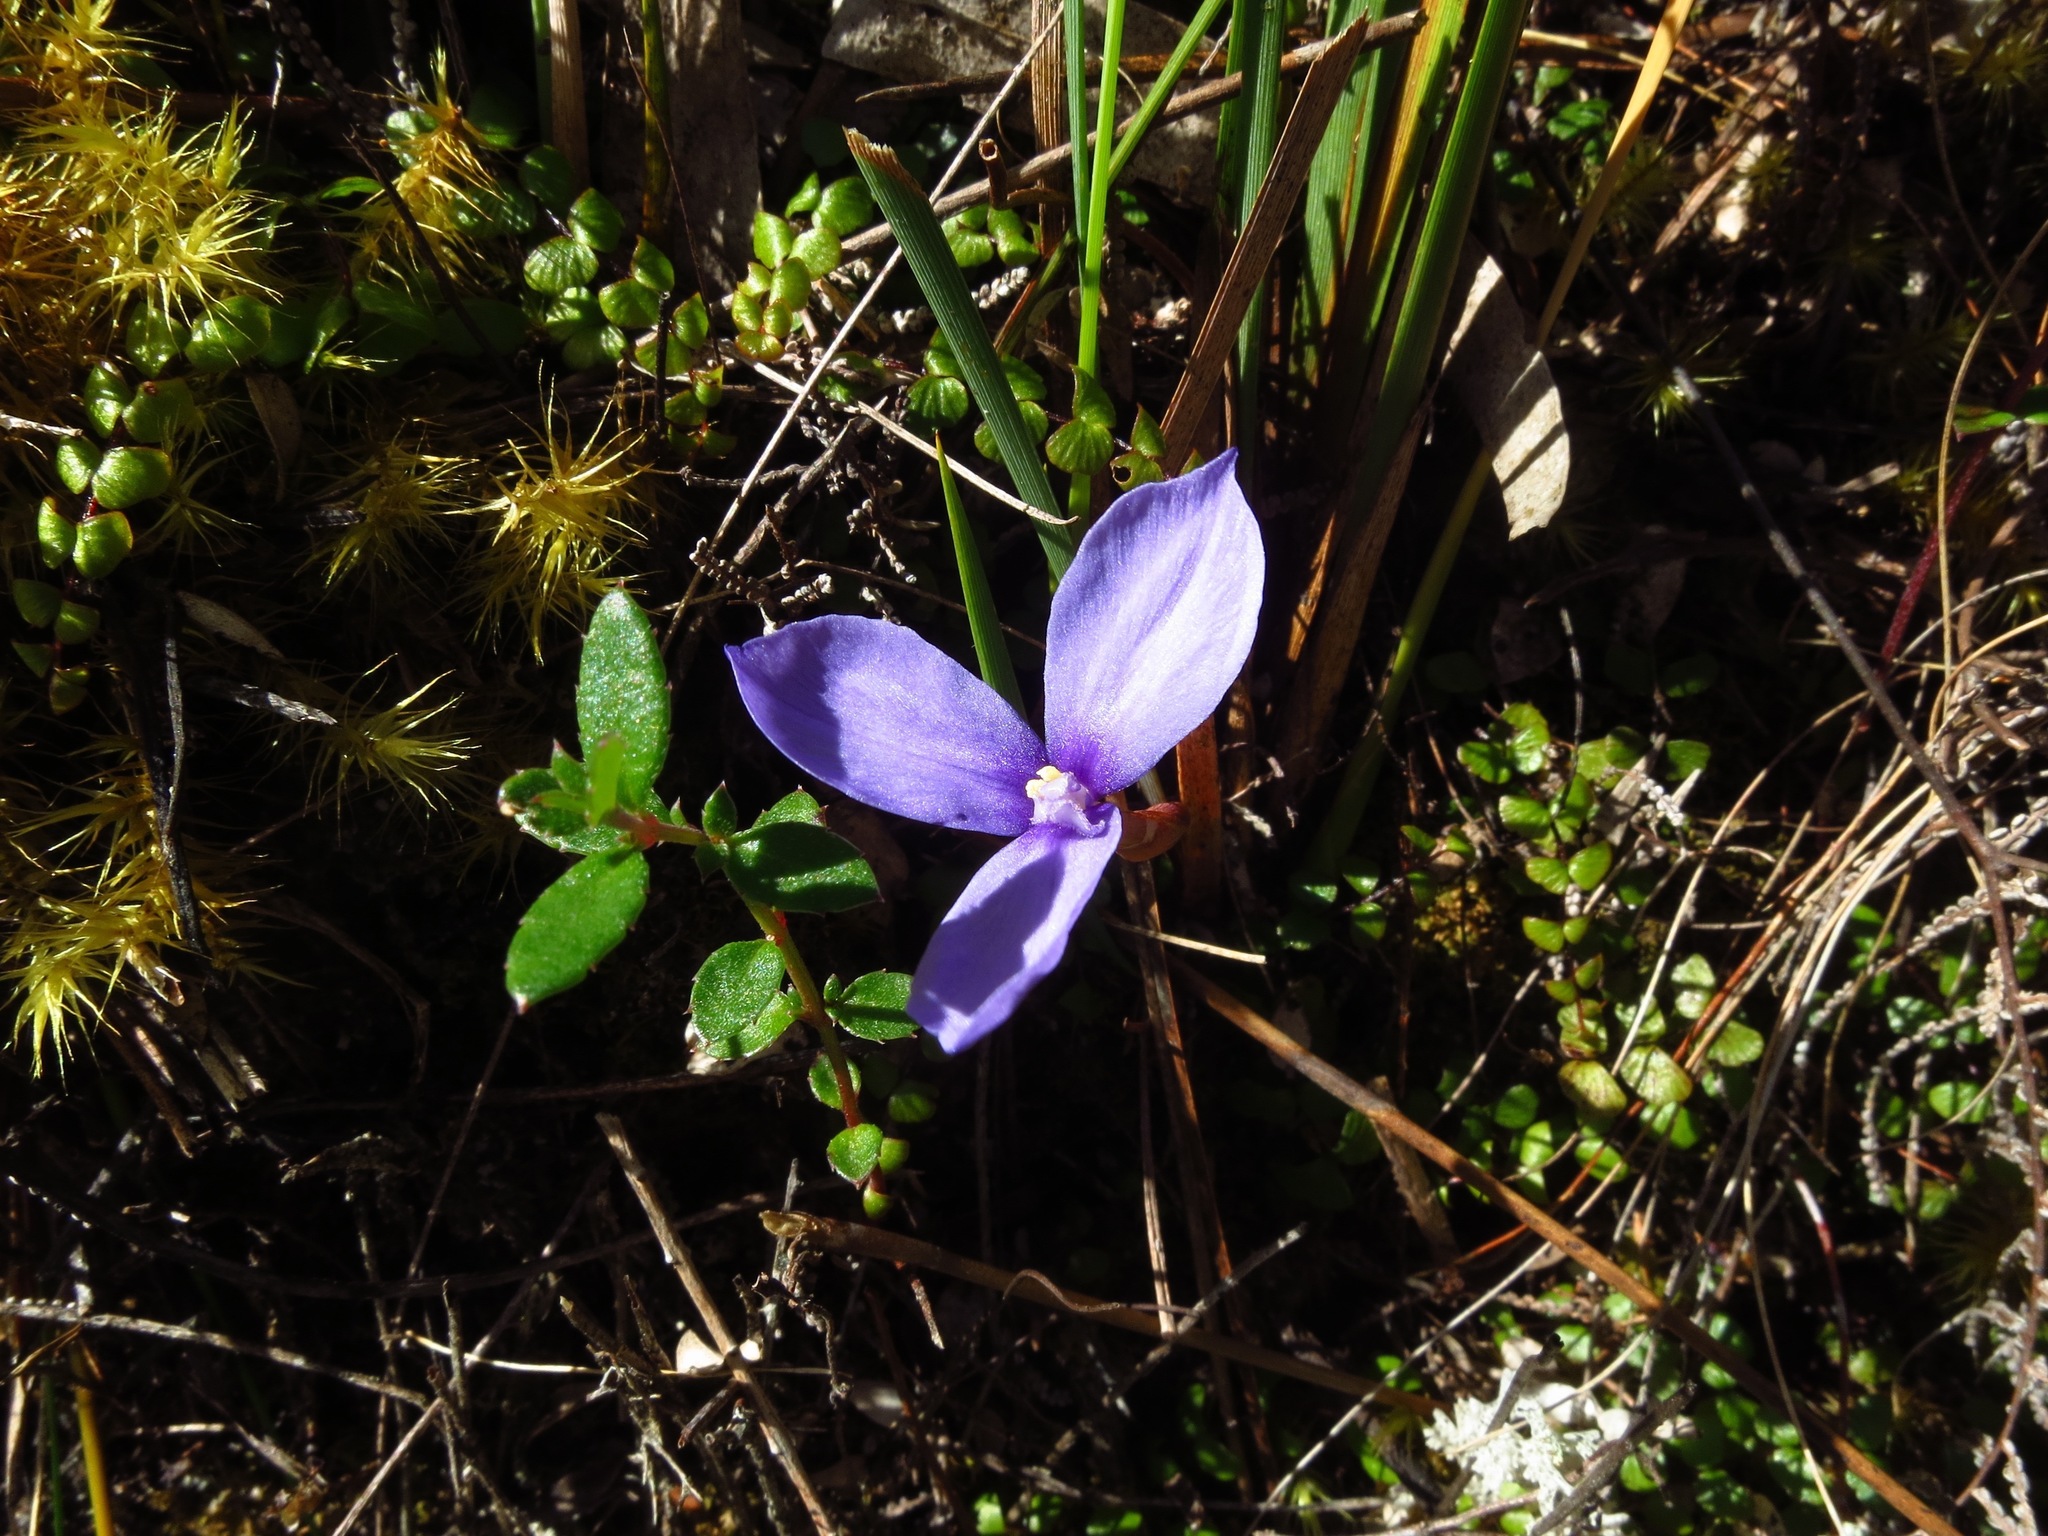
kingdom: Plantae
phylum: Tracheophyta
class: Liliopsida
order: Asparagales
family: Iridaceae
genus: Patersonia
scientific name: Patersonia fragilis
